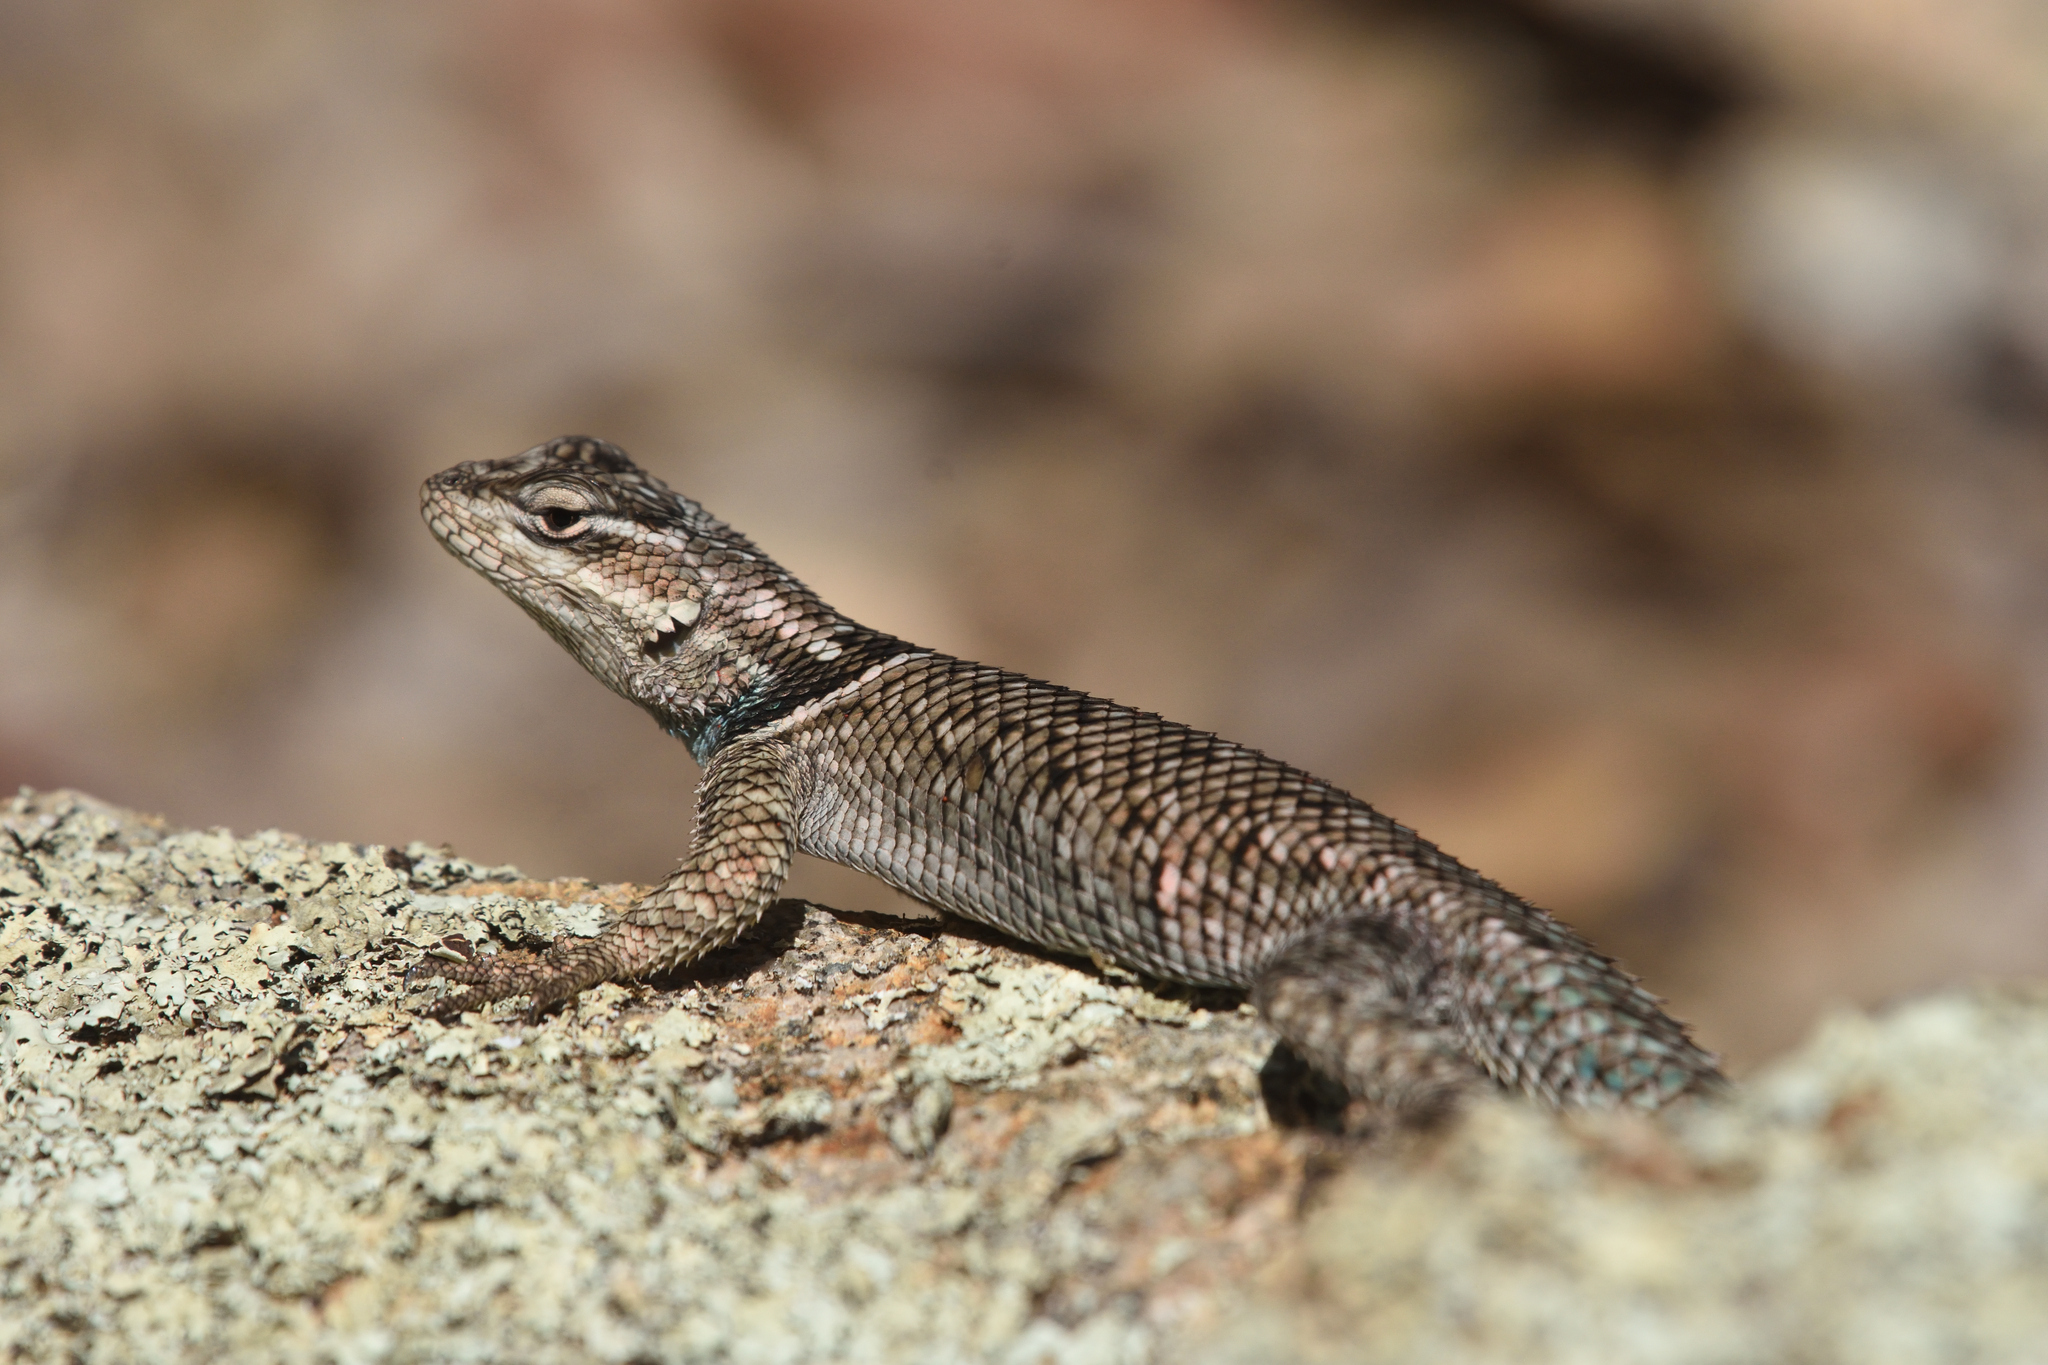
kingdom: Animalia
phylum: Chordata
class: Squamata
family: Phrynosomatidae
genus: Sceloporus
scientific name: Sceloporus jarrovii
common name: Yarrow's spiny lizard
